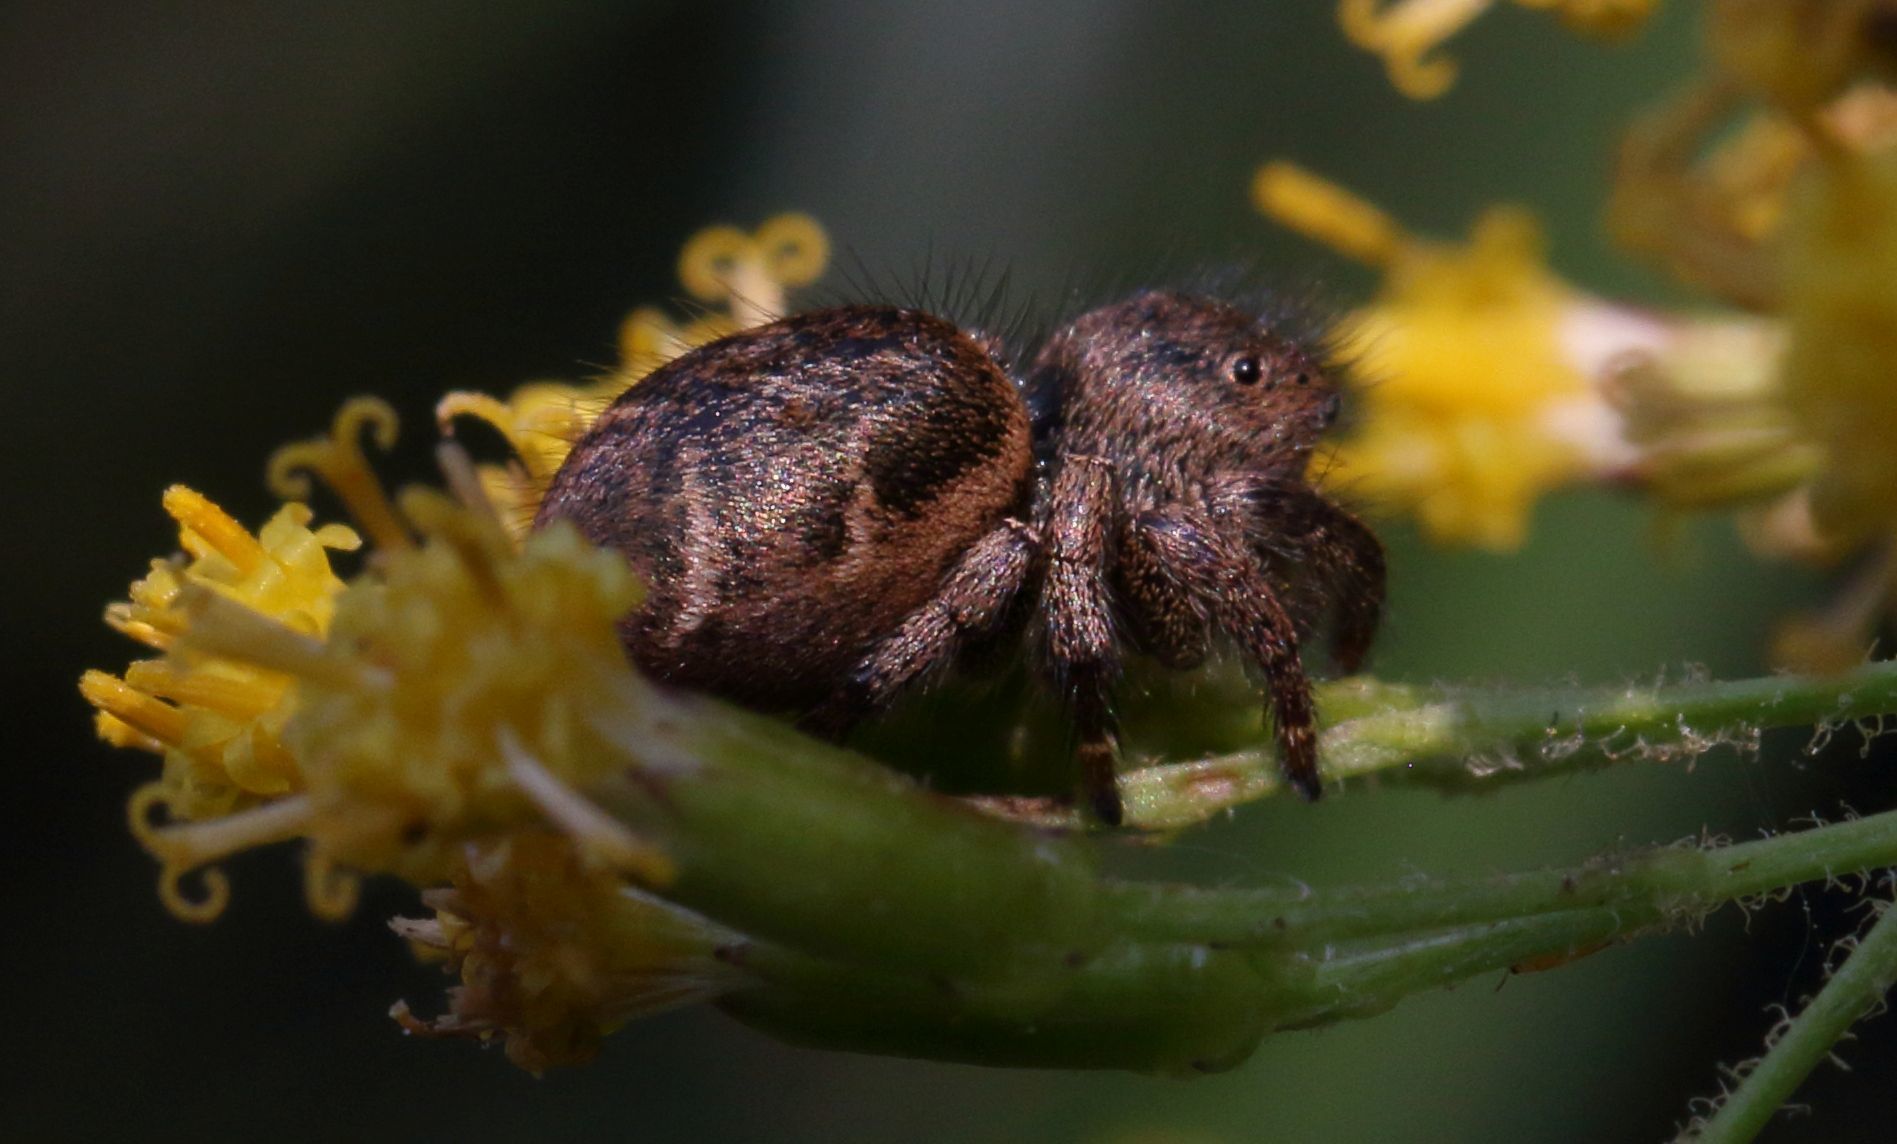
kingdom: Animalia
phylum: Arthropoda
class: Arachnida
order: Araneae
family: Salticidae
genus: Baryphas
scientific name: Baryphas ahenus
